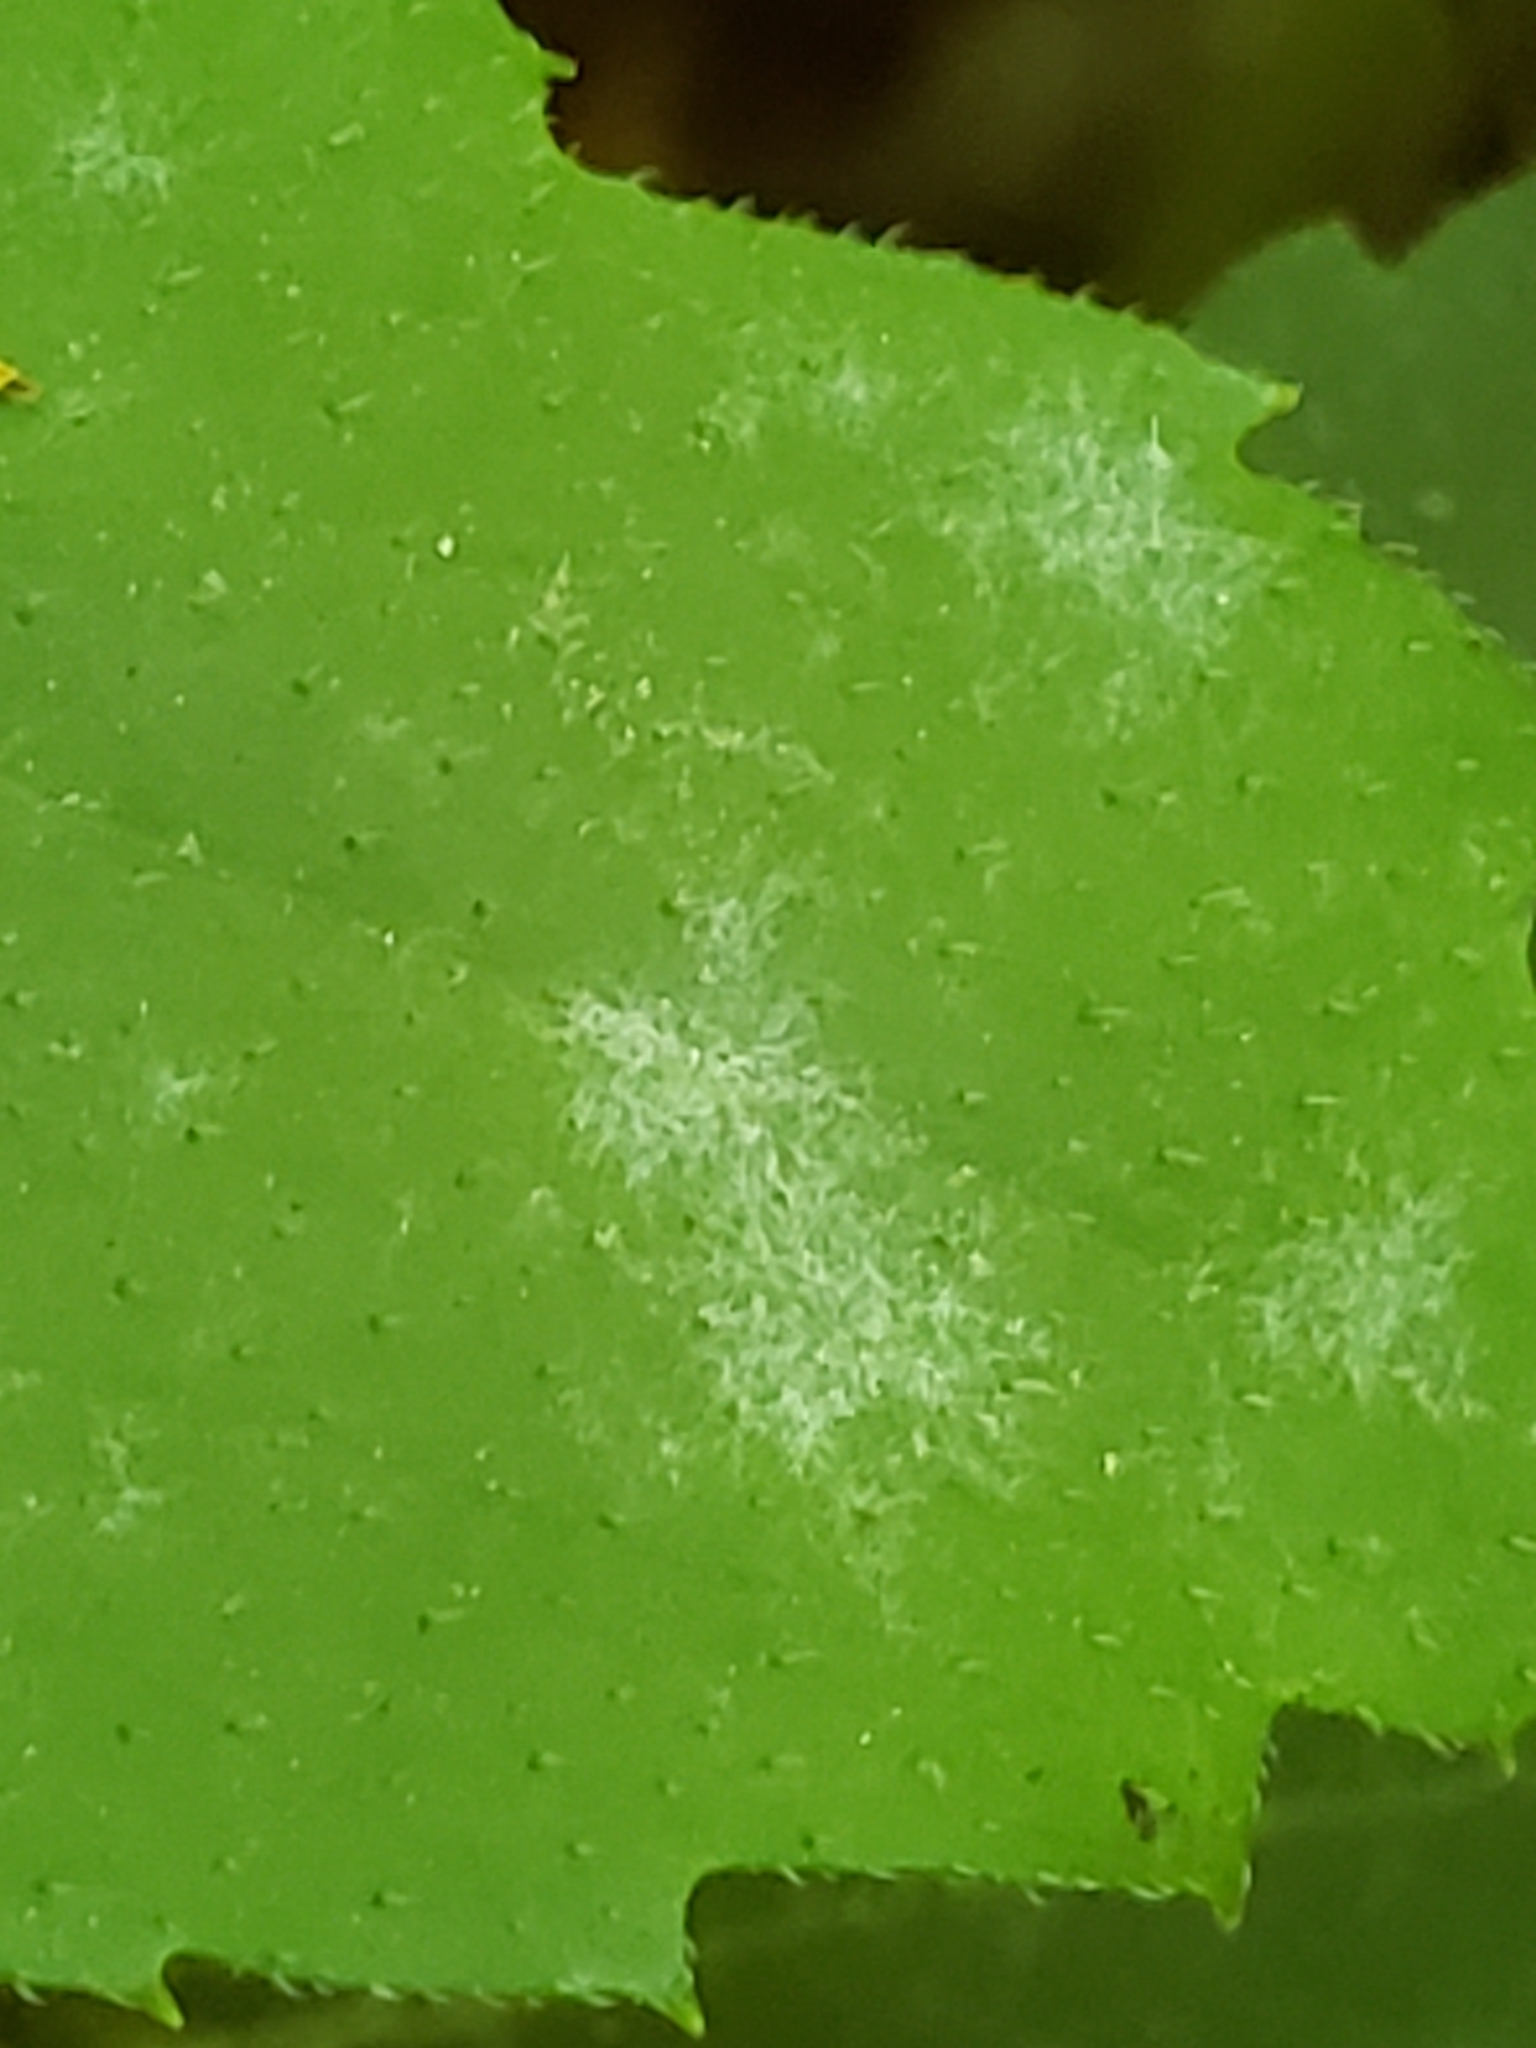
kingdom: Plantae
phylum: Tracheophyta
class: Magnoliopsida
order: Boraginales
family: Hydrophyllaceae
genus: Hydrophyllum
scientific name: Hydrophyllum canadense
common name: Canada waterleaf
